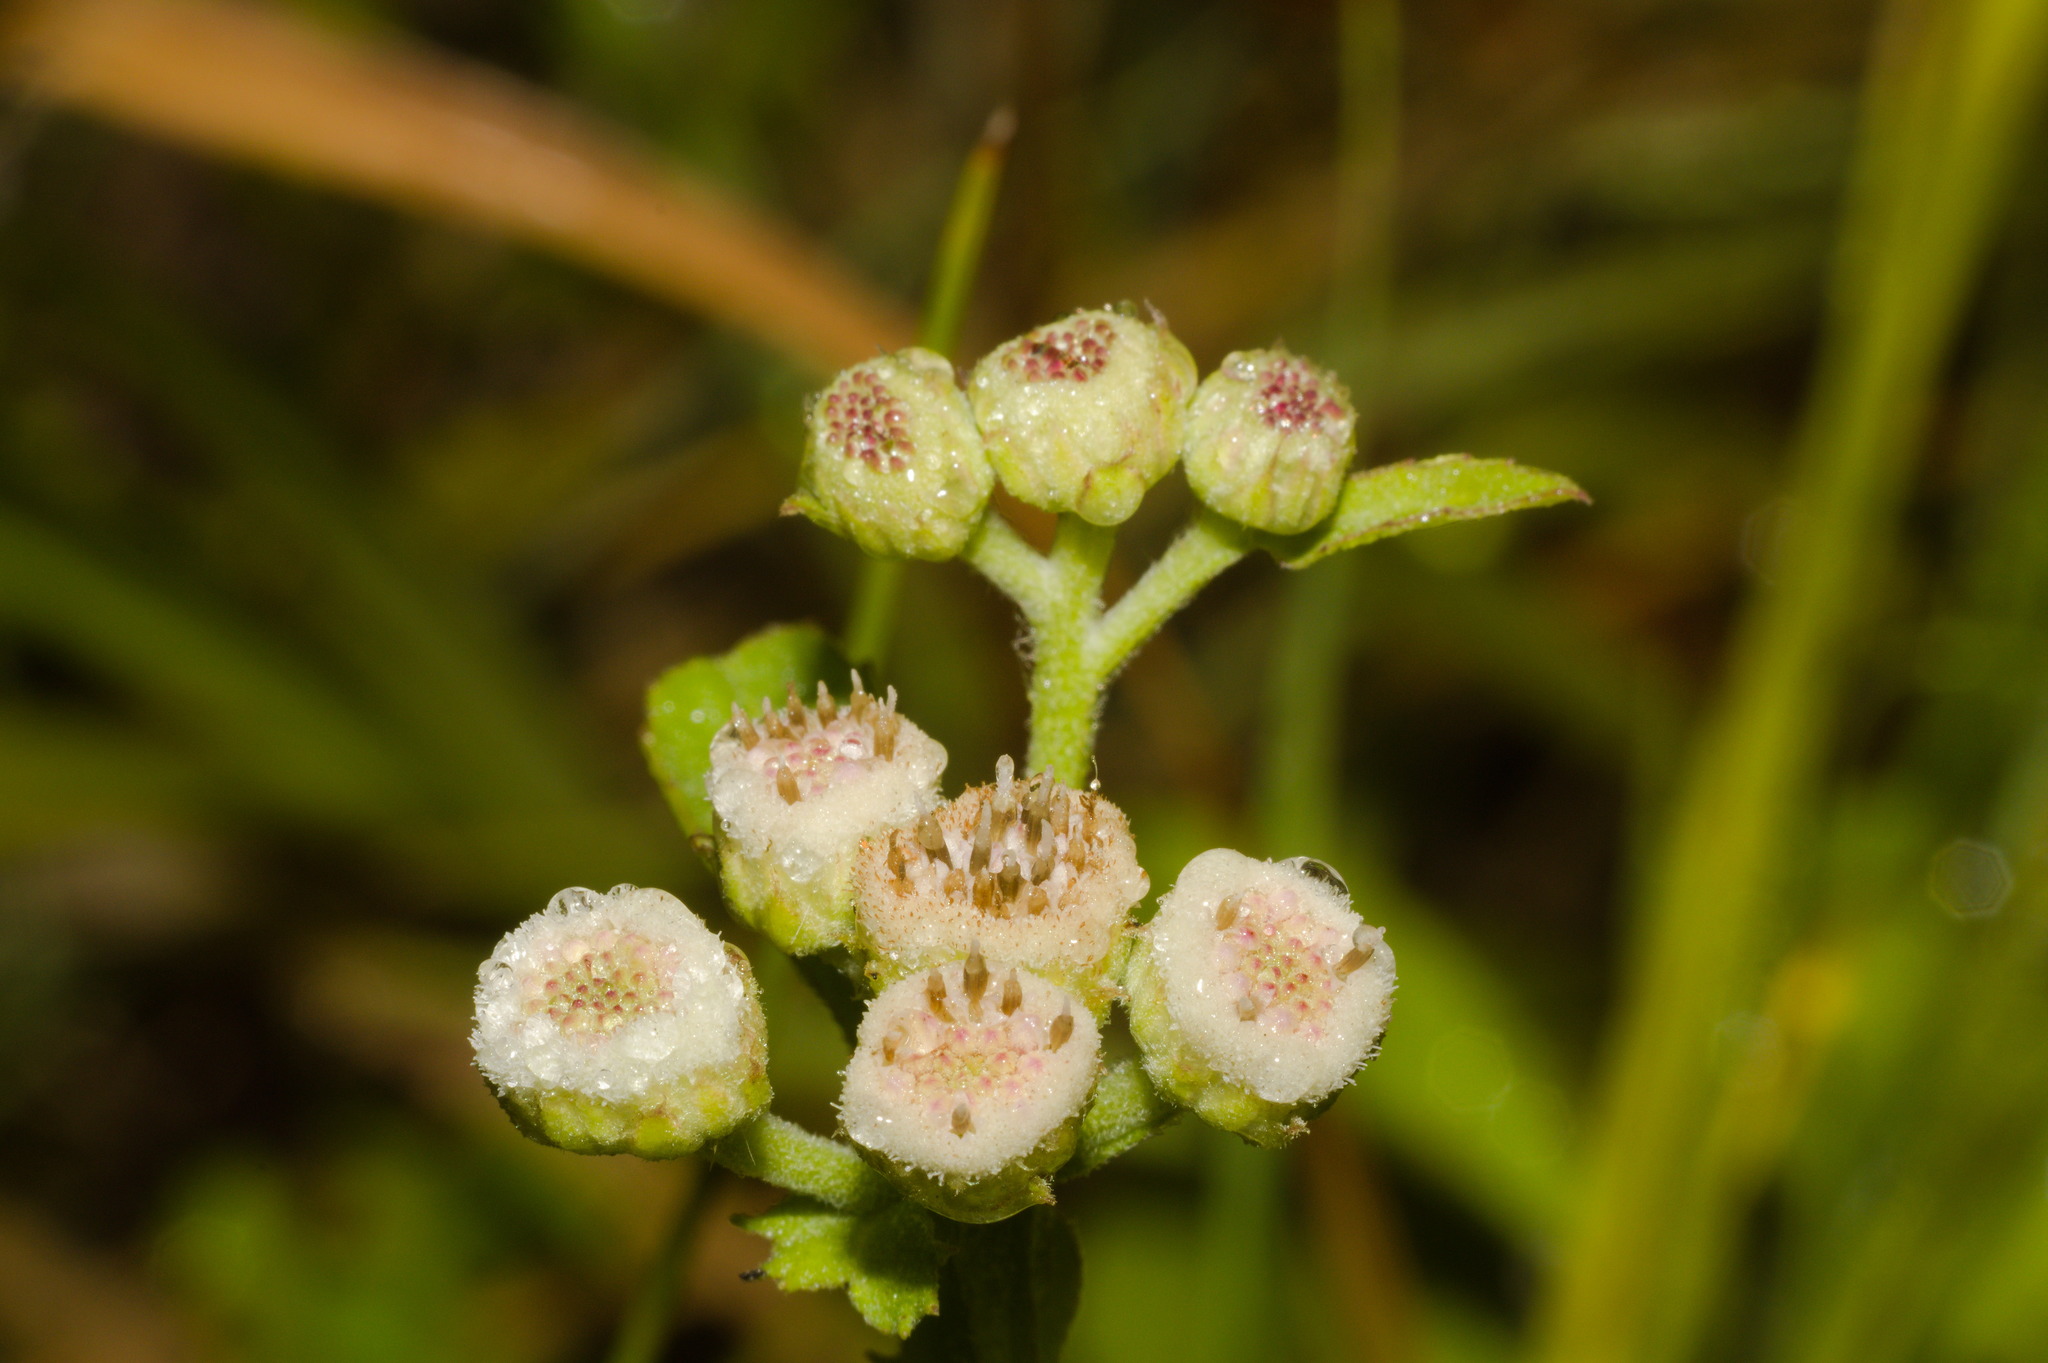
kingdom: Plantae
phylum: Tracheophyta
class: Magnoliopsida
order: Asterales
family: Asteraceae
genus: Pluchea
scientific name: Pluchea sagittalis
